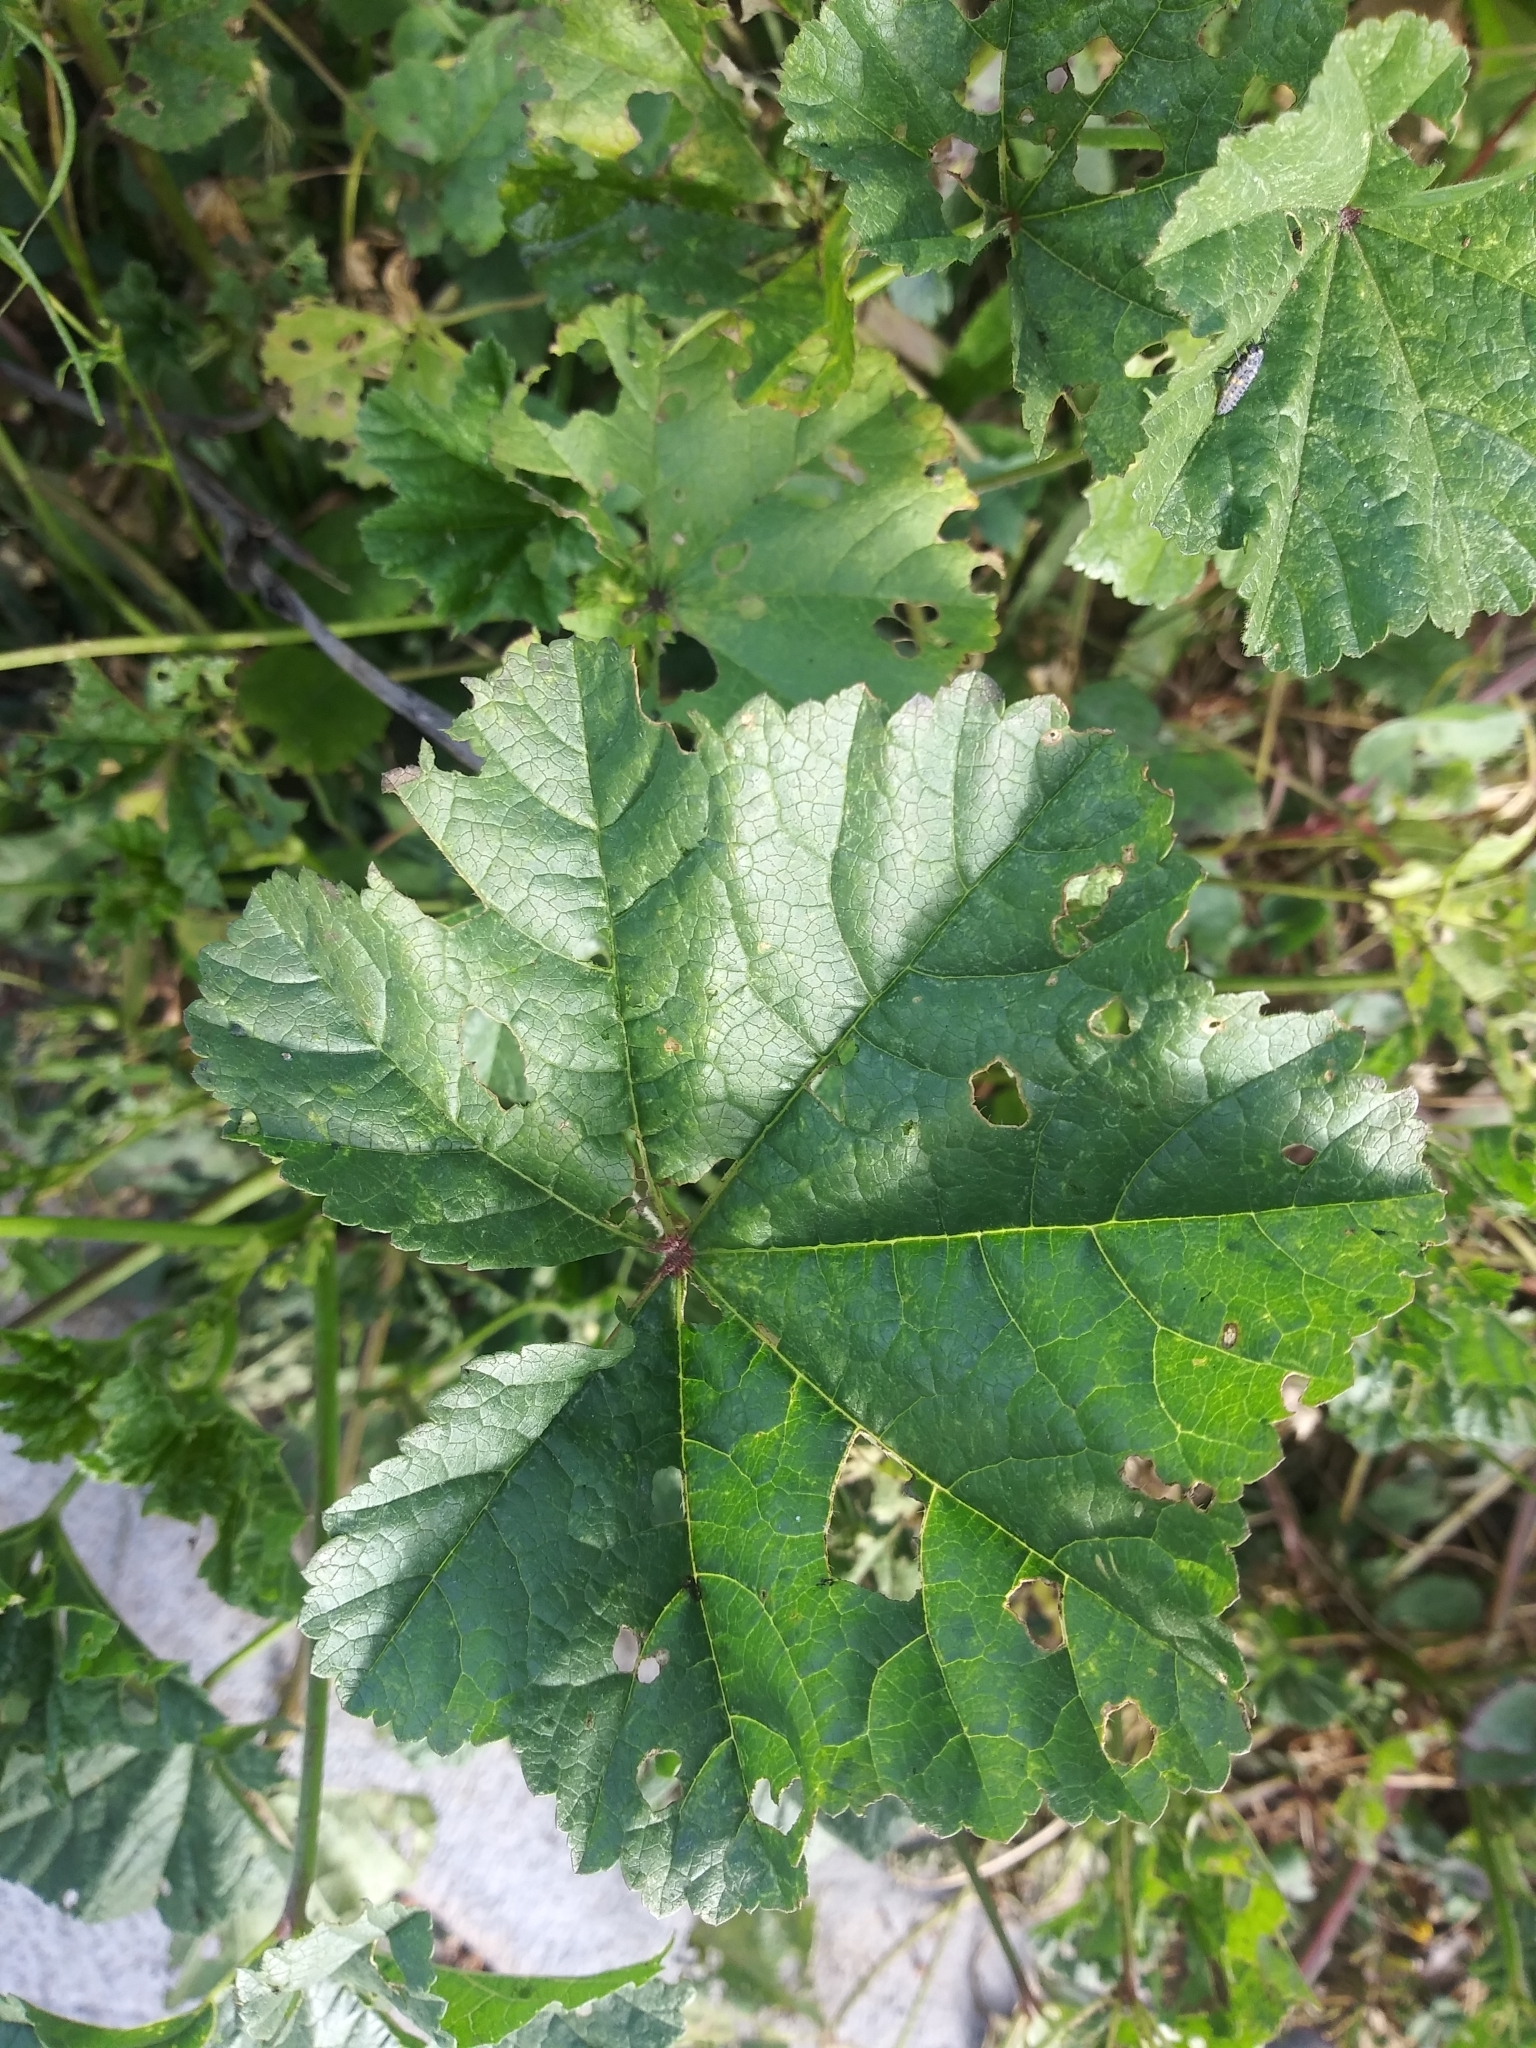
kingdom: Plantae
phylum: Tracheophyta
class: Magnoliopsida
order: Malvales
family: Malvaceae
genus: Malva
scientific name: Malva
